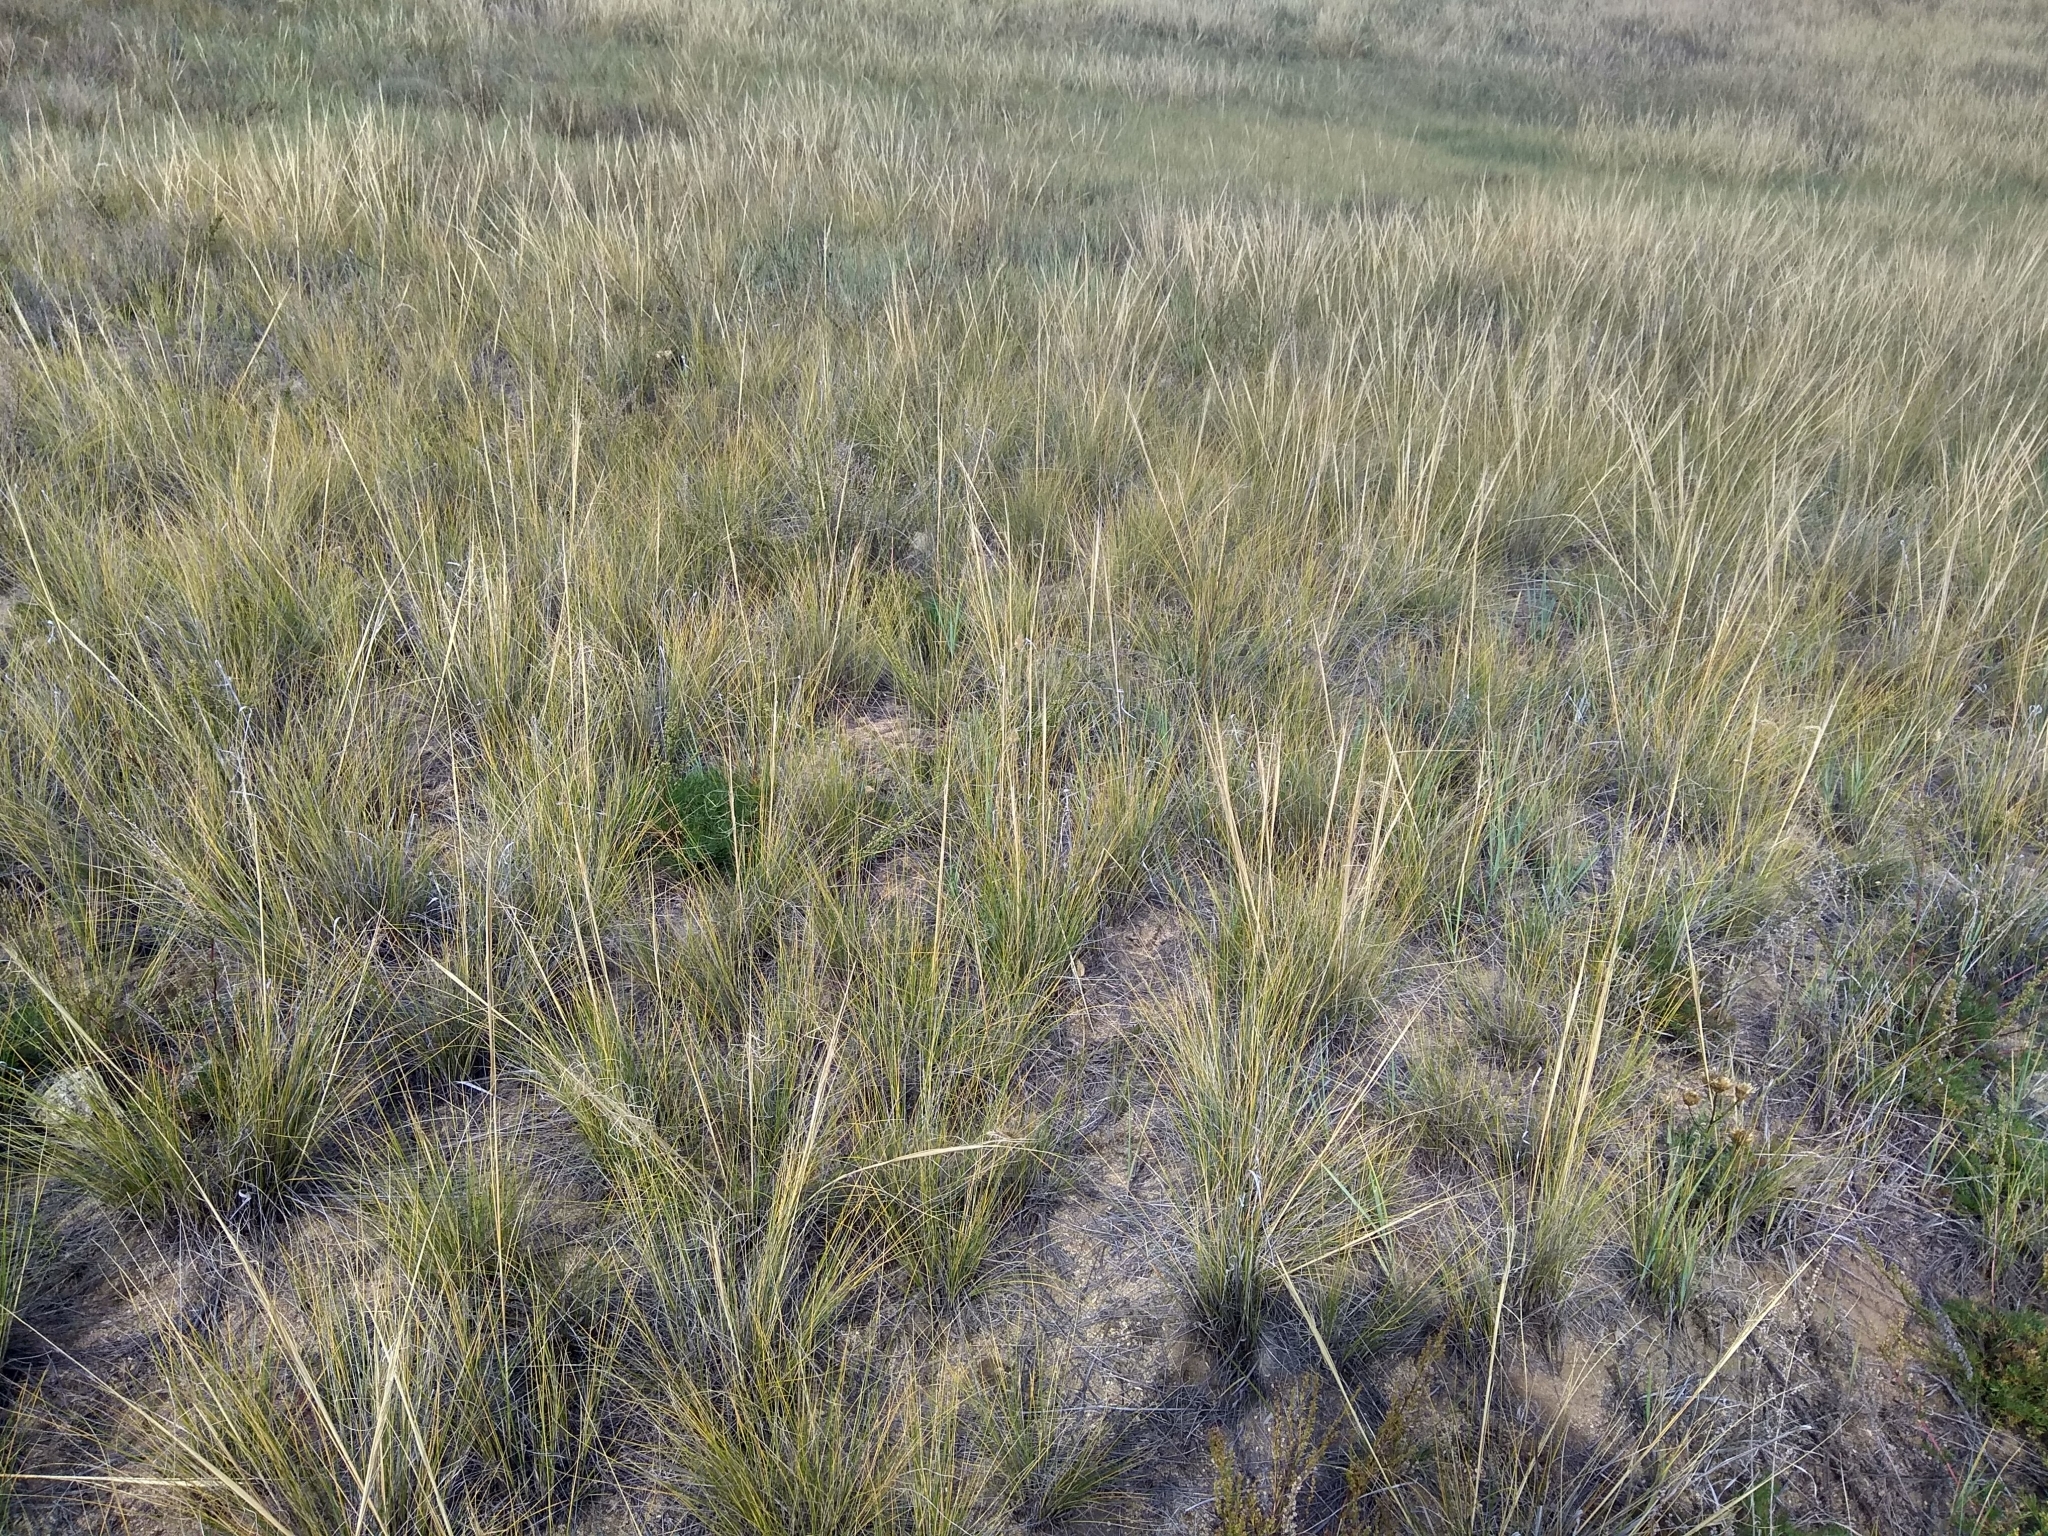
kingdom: Plantae
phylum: Tracheophyta
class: Liliopsida
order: Poales
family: Poaceae
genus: Stipa
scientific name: Stipa capillata
